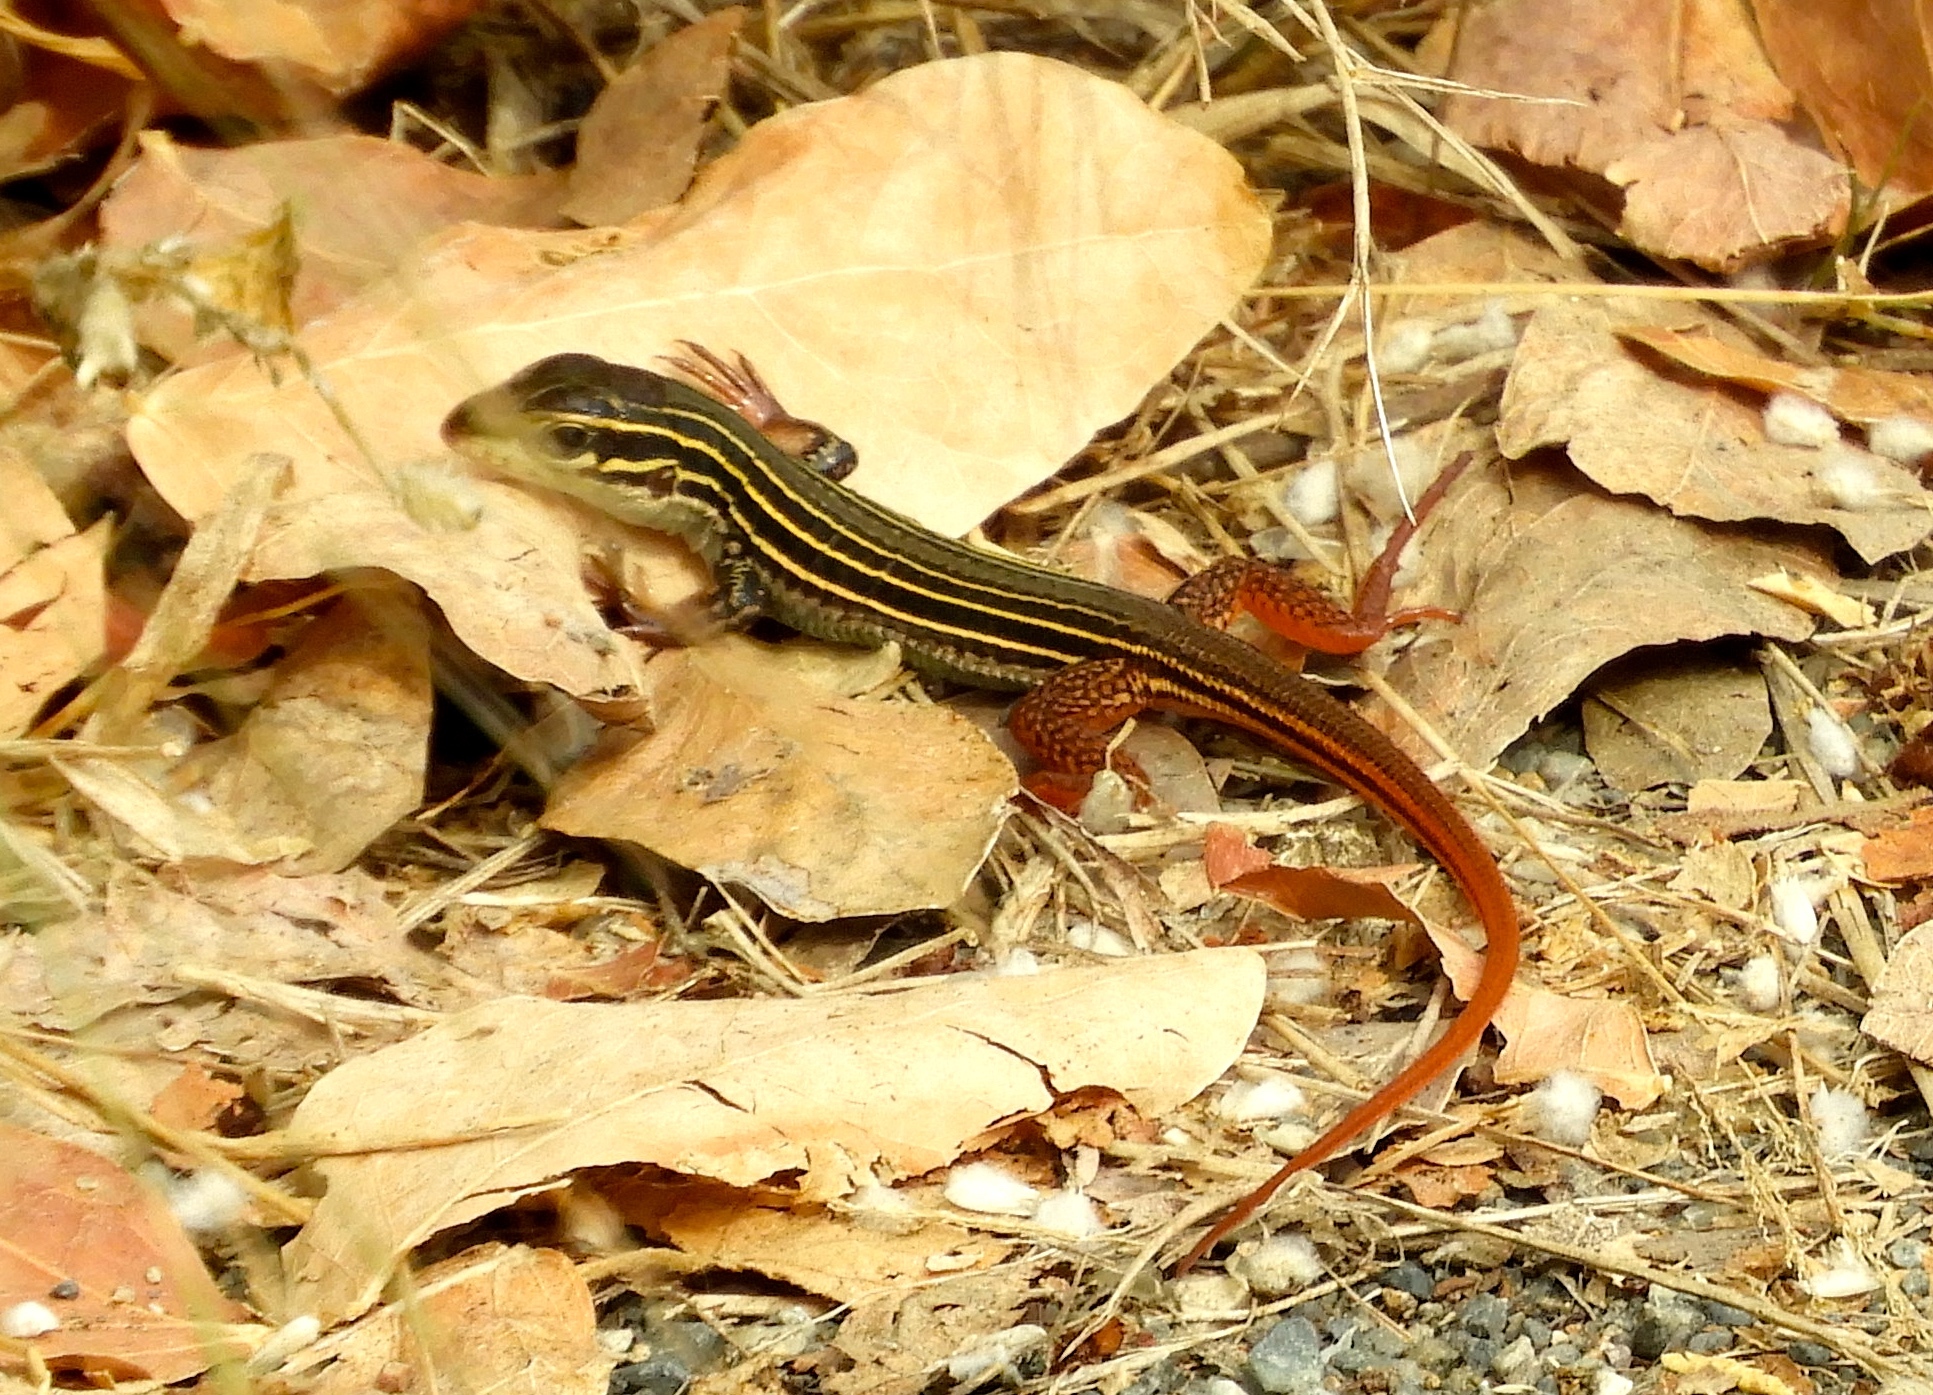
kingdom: Animalia
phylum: Chordata
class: Squamata
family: Teiidae
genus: Aspidoscelis
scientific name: Aspidoscelis costatus
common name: Western mexico whiptail
